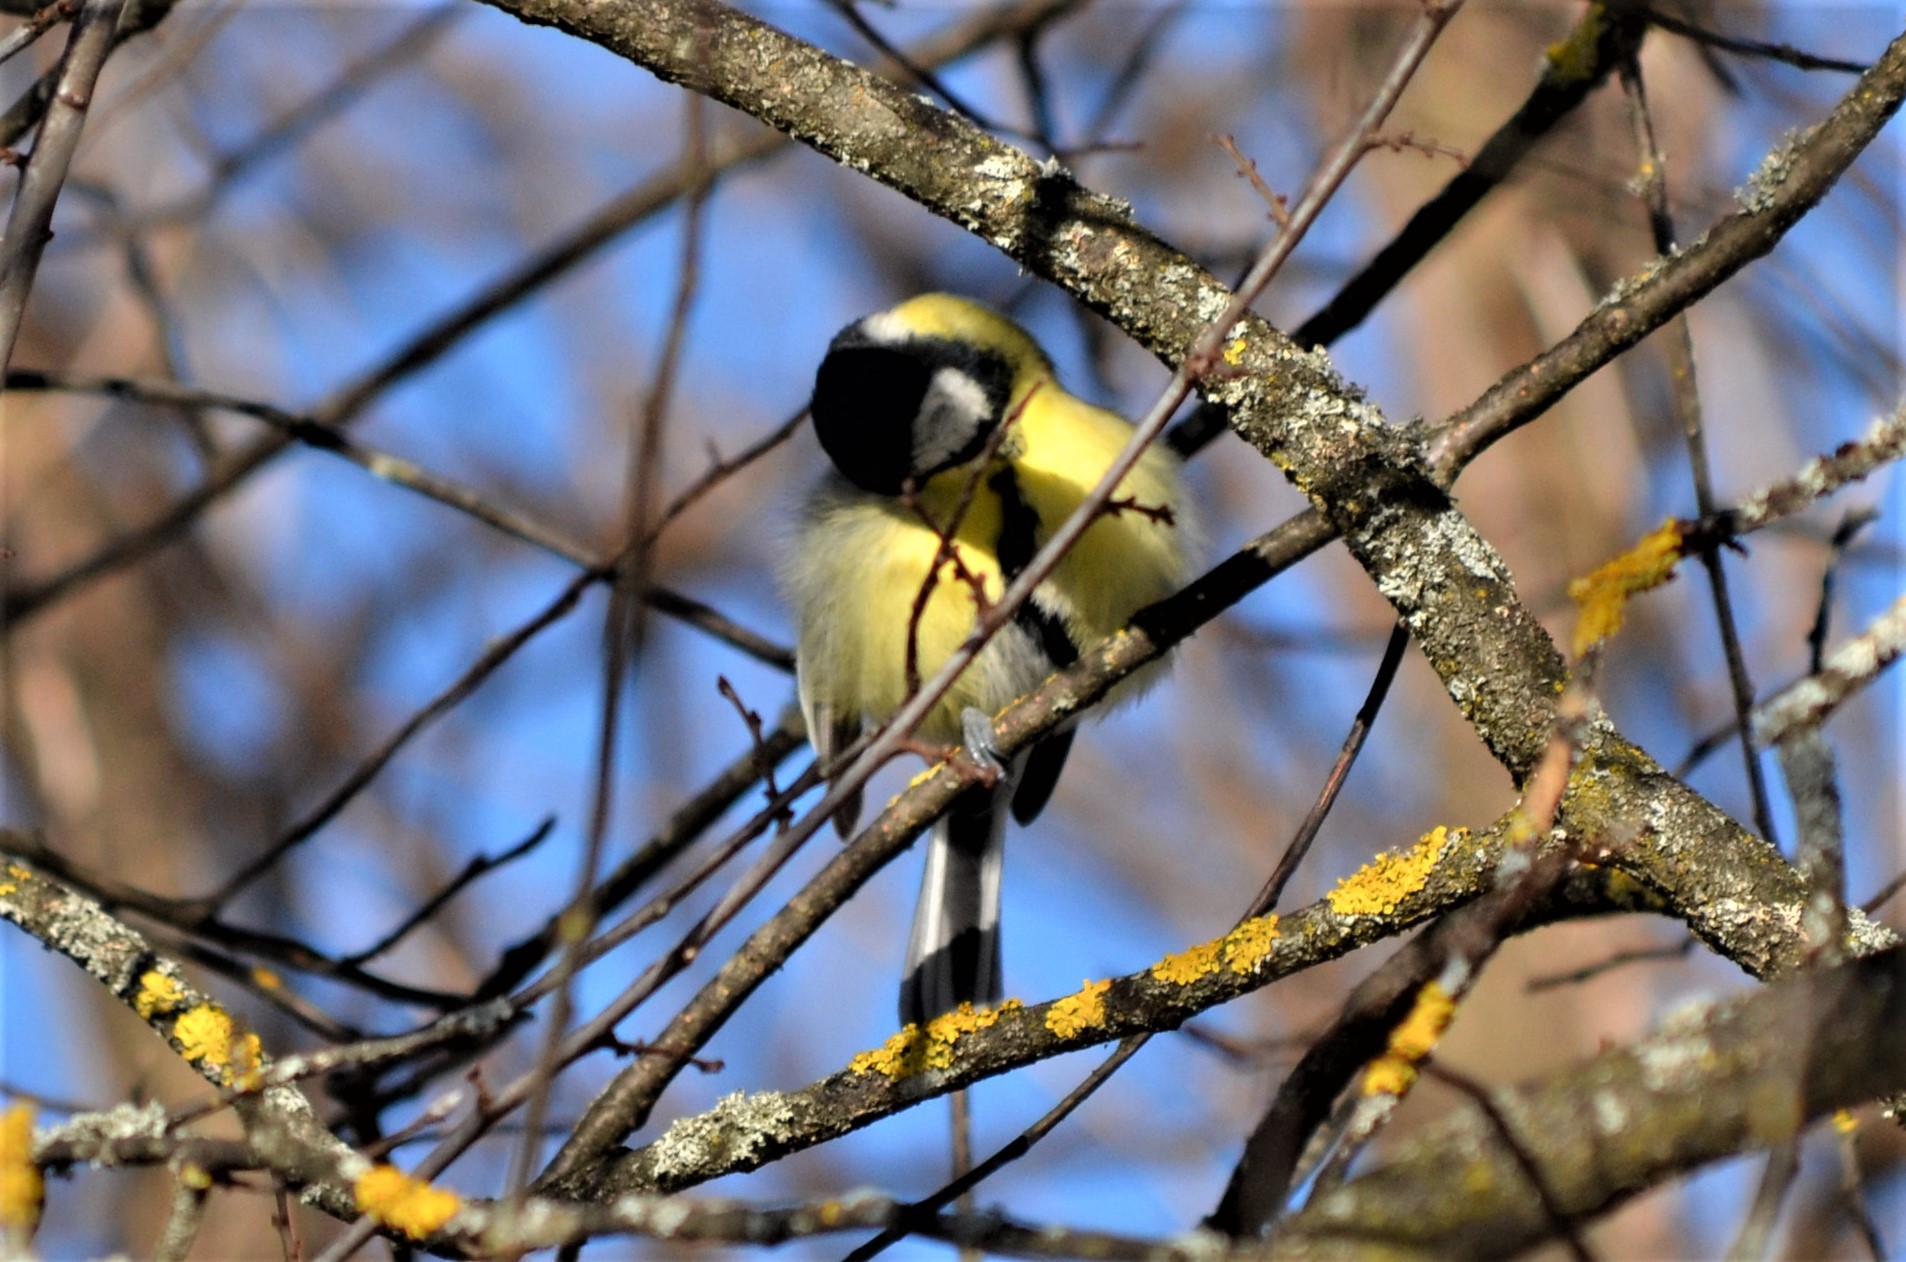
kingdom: Animalia
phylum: Chordata
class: Aves
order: Passeriformes
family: Paridae
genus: Parus
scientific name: Parus major
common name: Great tit
